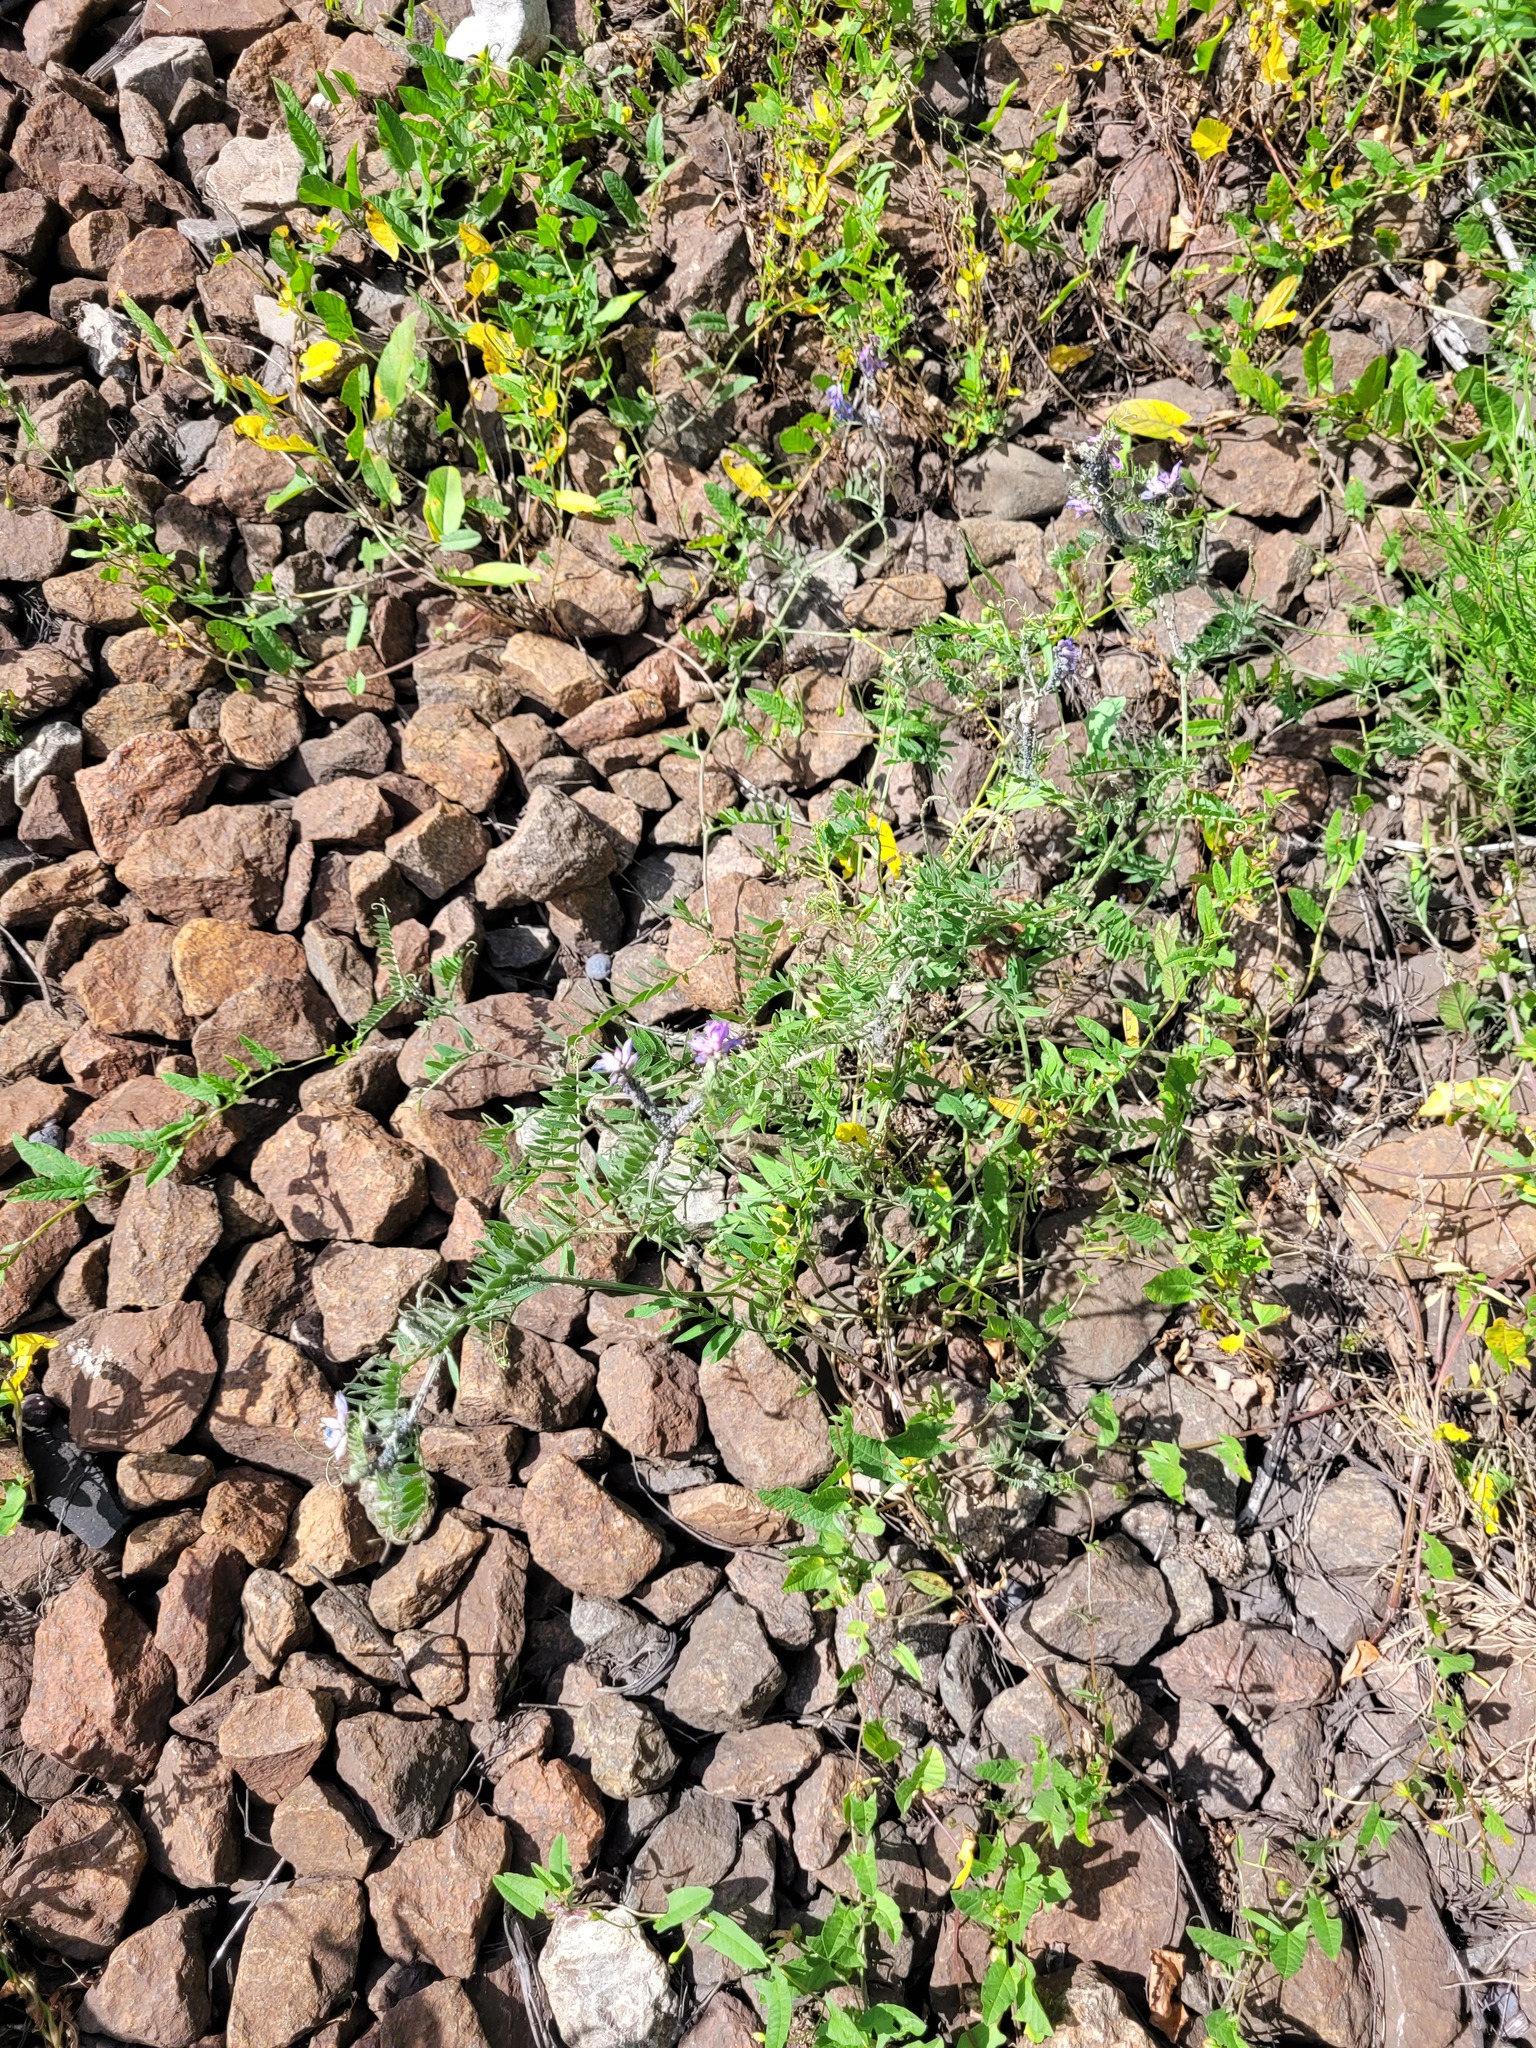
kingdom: Plantae
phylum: Tracheophyta
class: Magnoliopsida
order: Fabales
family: Fabaceae
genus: Vicia
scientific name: Vicia cracca
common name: Bird vetch
